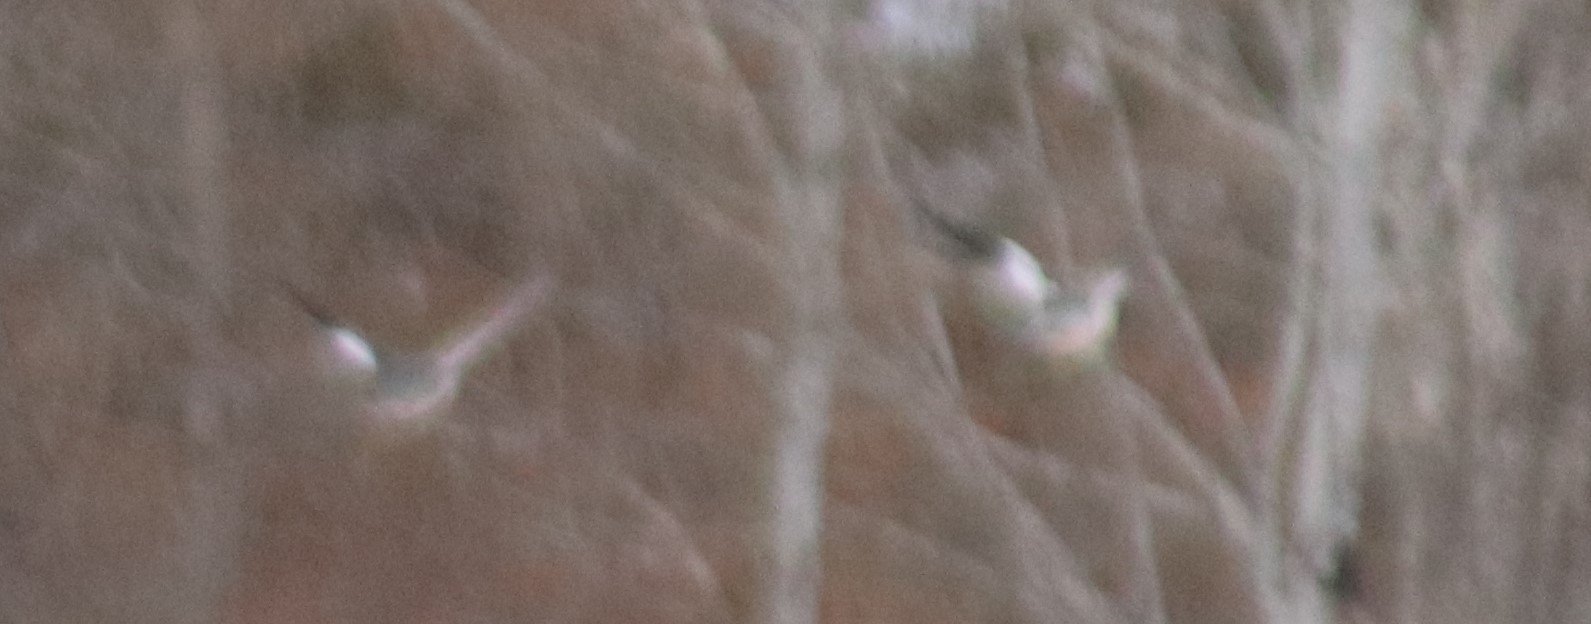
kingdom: Animalia
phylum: Chordata
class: Aves
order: Anseriformes
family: Anatidae
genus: Mergus
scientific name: Mergus merganser
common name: Common merganser
